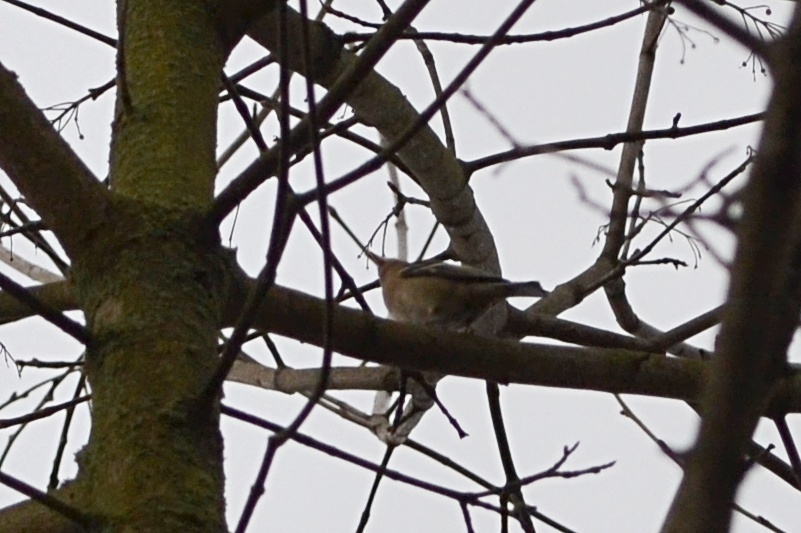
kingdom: Animalia
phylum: Chordata
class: Aves
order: Passeriformes
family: Fringillidae
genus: Fringilla
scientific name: Fringilla coelebs
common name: Common chaffinch
